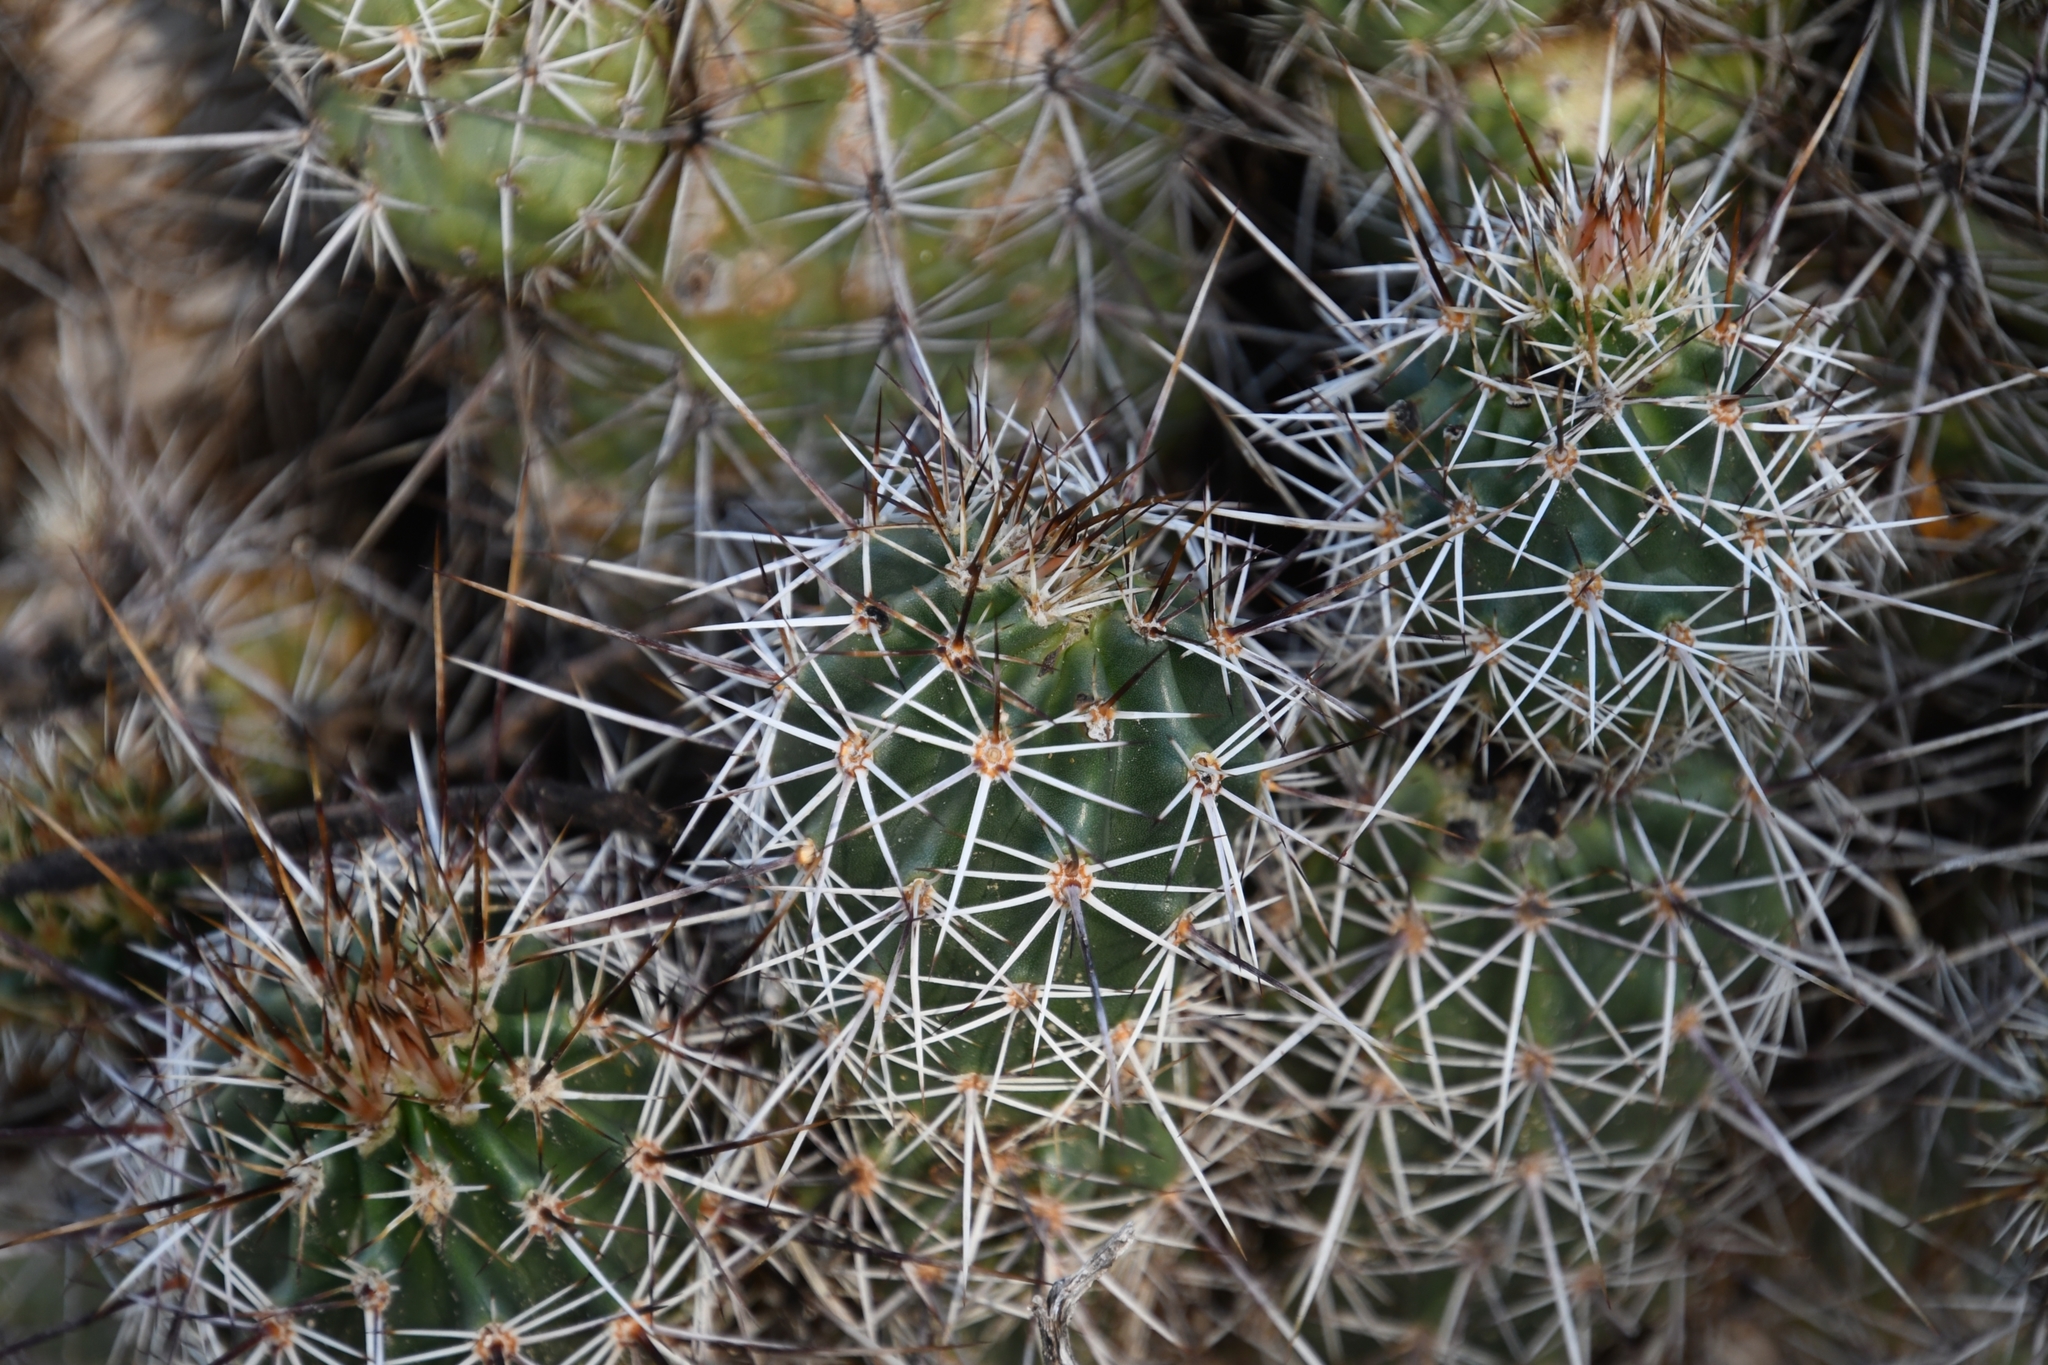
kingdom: Plantae
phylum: Tracheophyta
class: Magnoliopsida
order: Caryophyllales
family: Cactaceae
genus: Echinocereus
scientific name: Echinocereus fasciculatus
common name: Bundle hedgehog
